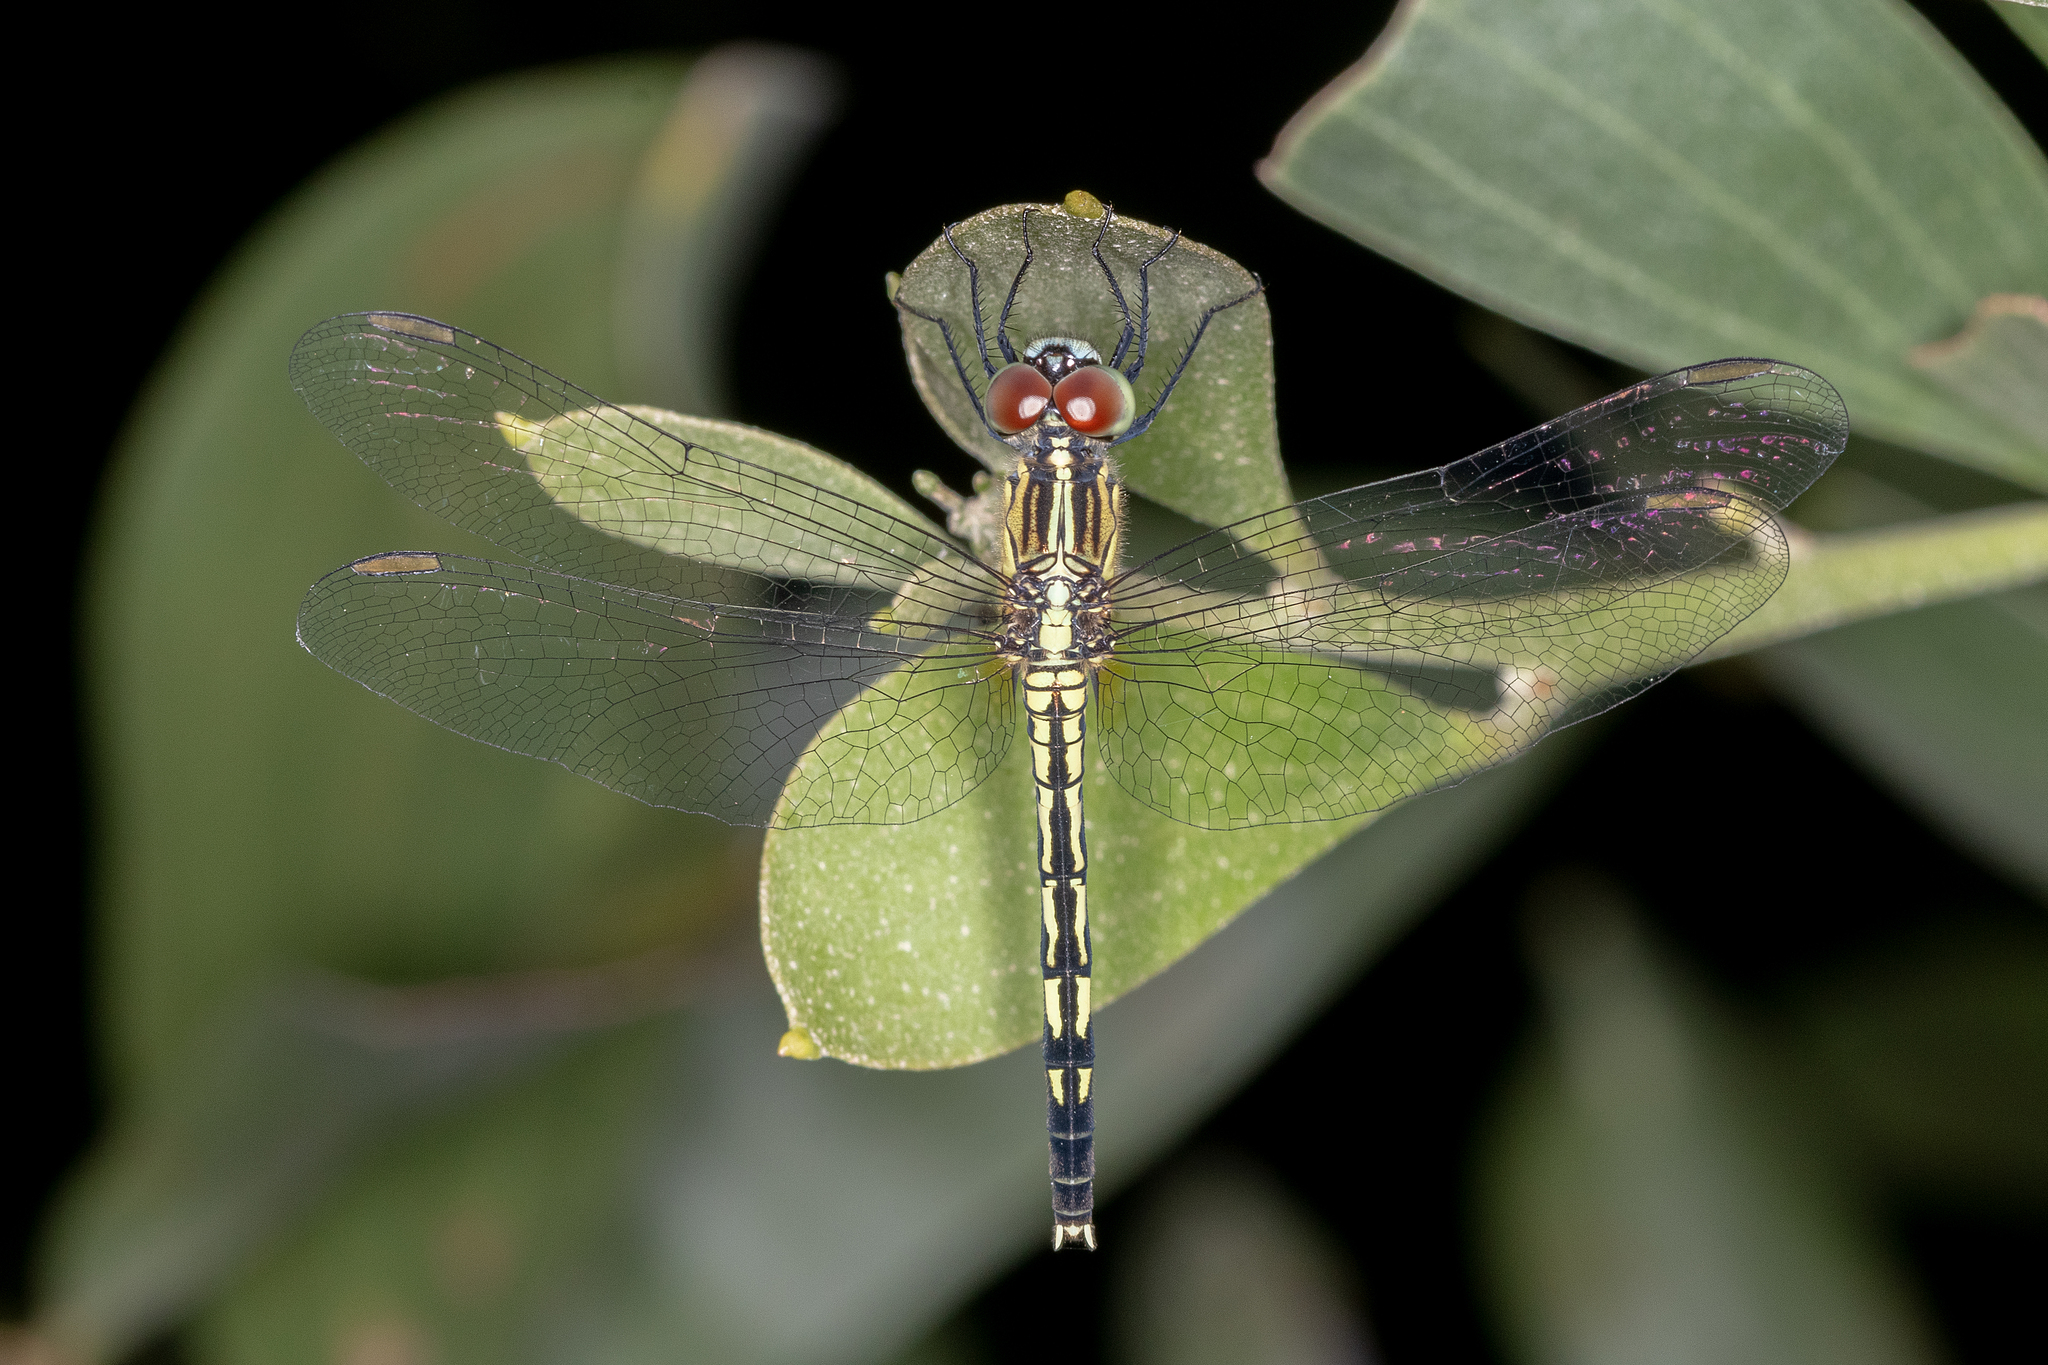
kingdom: Animalia
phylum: Arthropoda
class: Insecta
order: Odonata
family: Libellulidae
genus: Diplacodes
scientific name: Diplacodes trivialis
